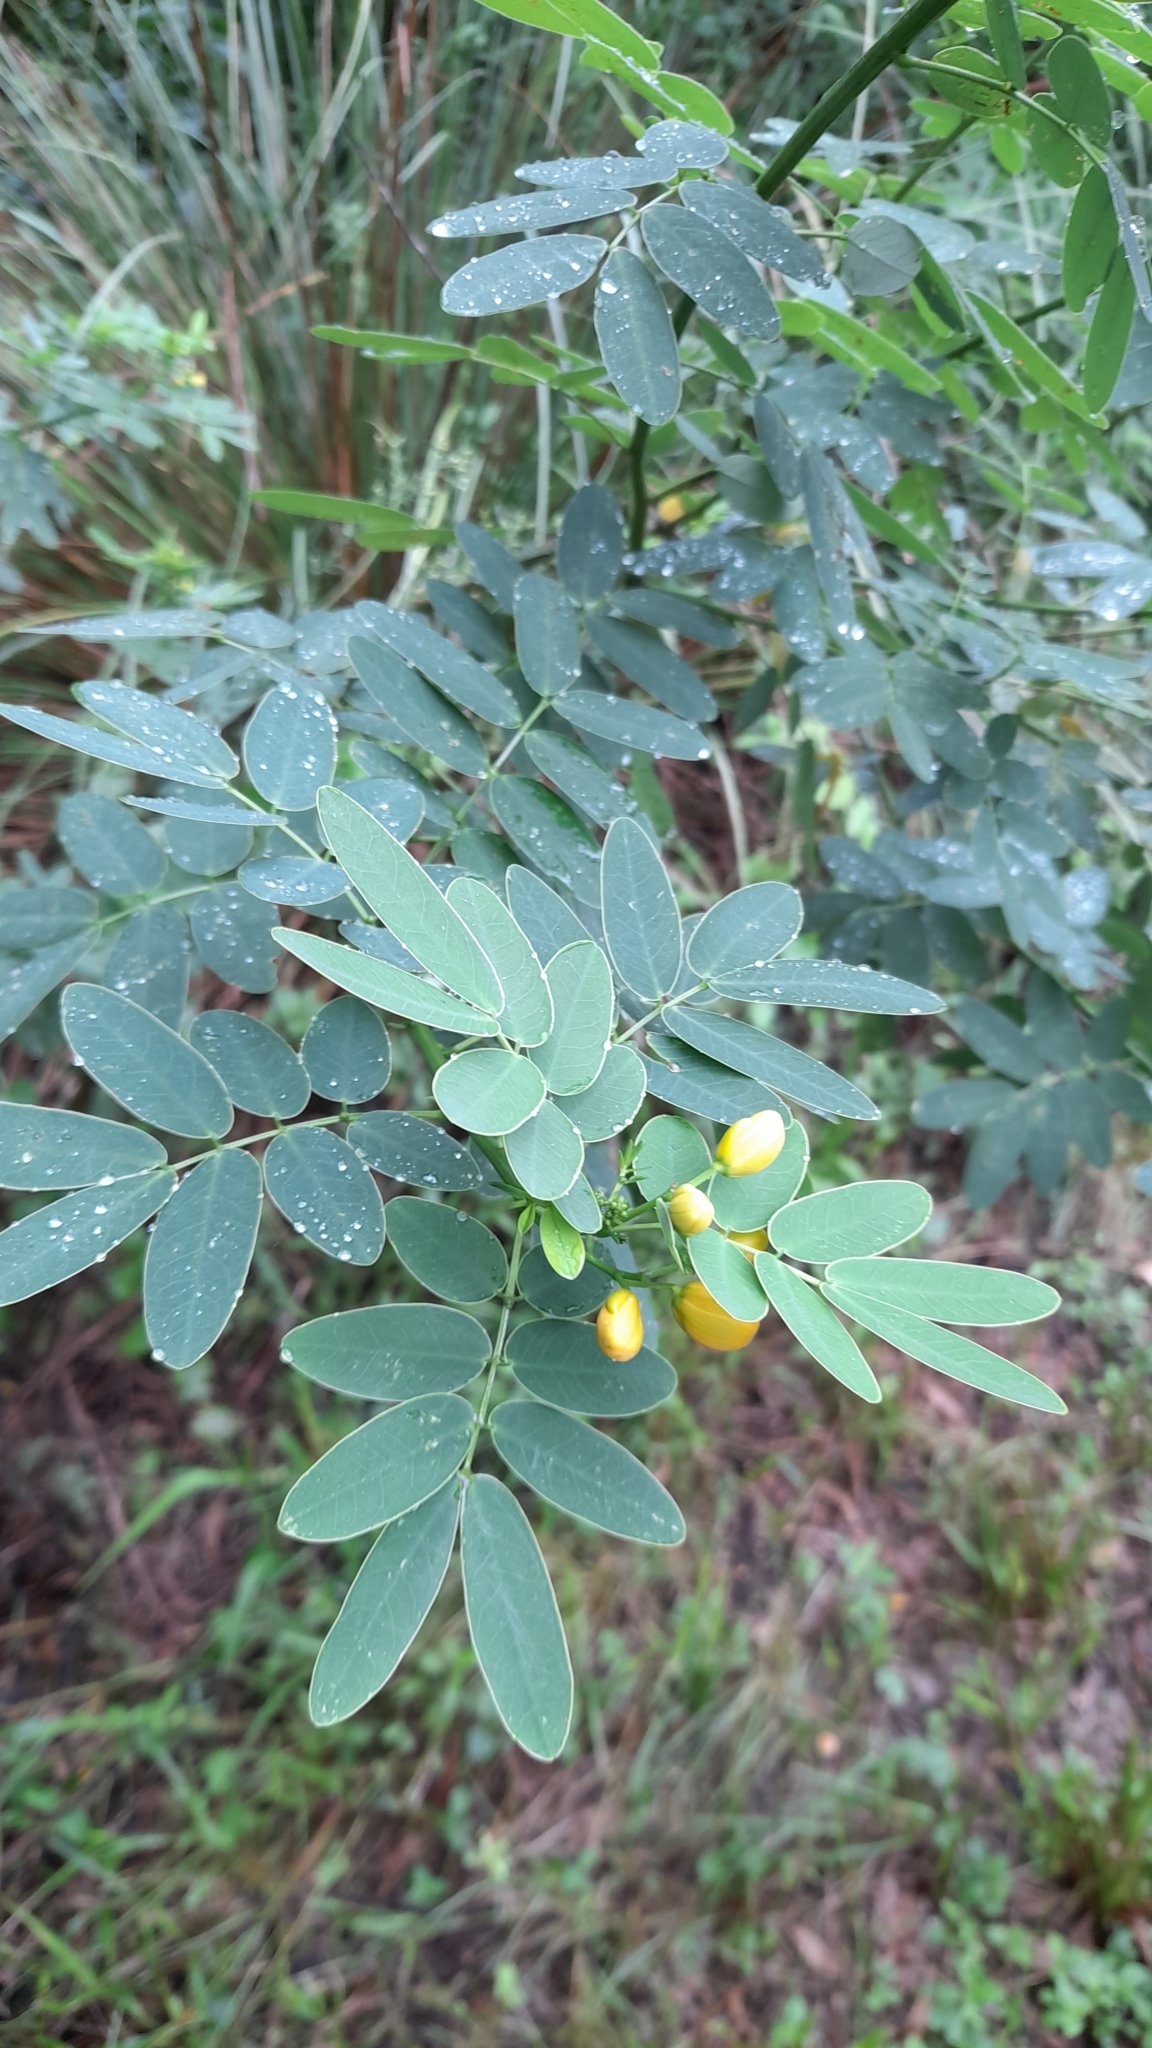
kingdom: Plantae
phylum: Tracheophyta
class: Magnoliopsida
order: Fabales
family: Fabaceae
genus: Senna
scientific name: Senna pendula
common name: Easter cassia
